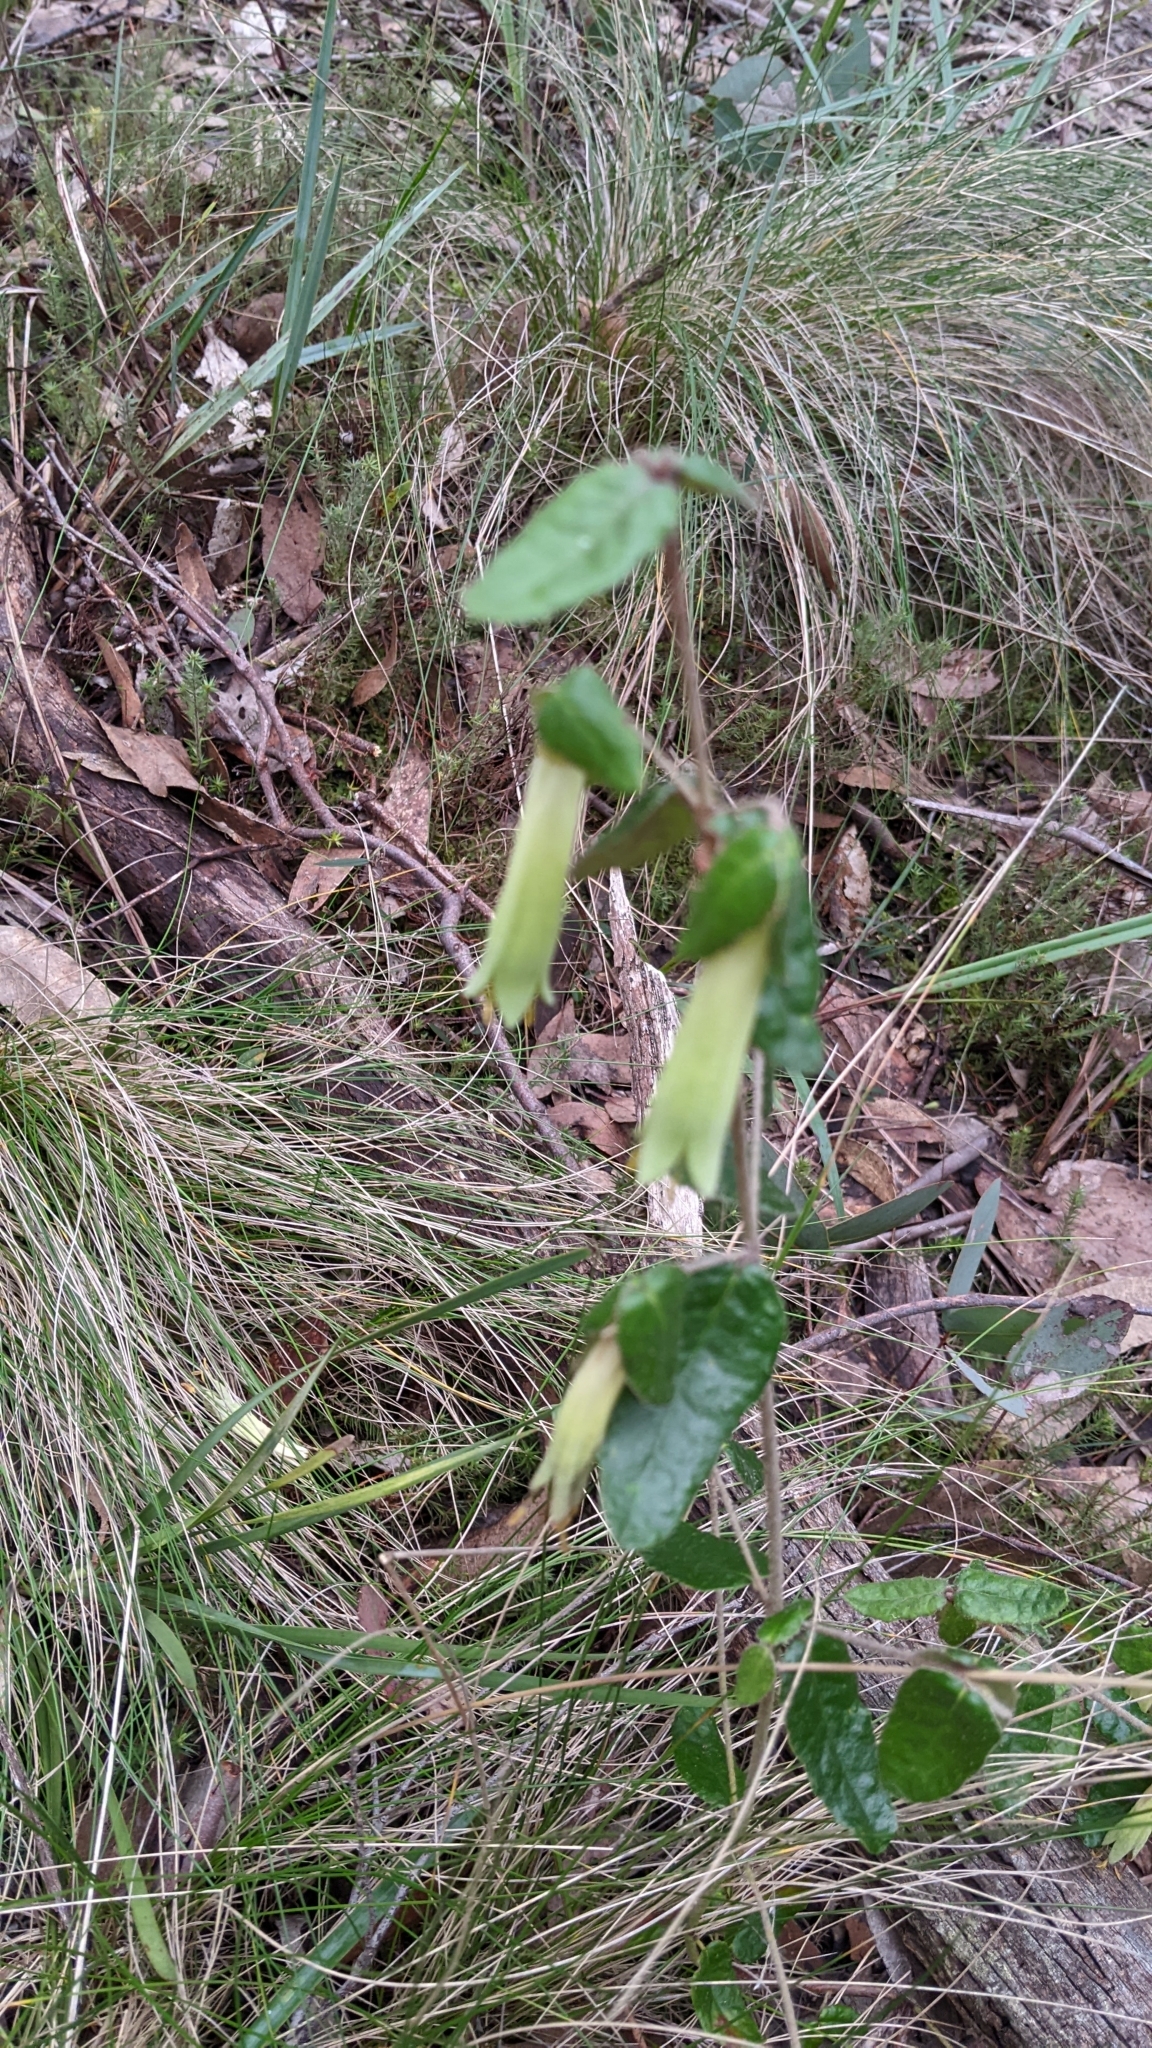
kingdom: Plantae
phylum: Tracheophyta
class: Magnoliopsida
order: Sapindales
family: Rutaceae
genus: Correa
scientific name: Correa reflexa
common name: Common correa
